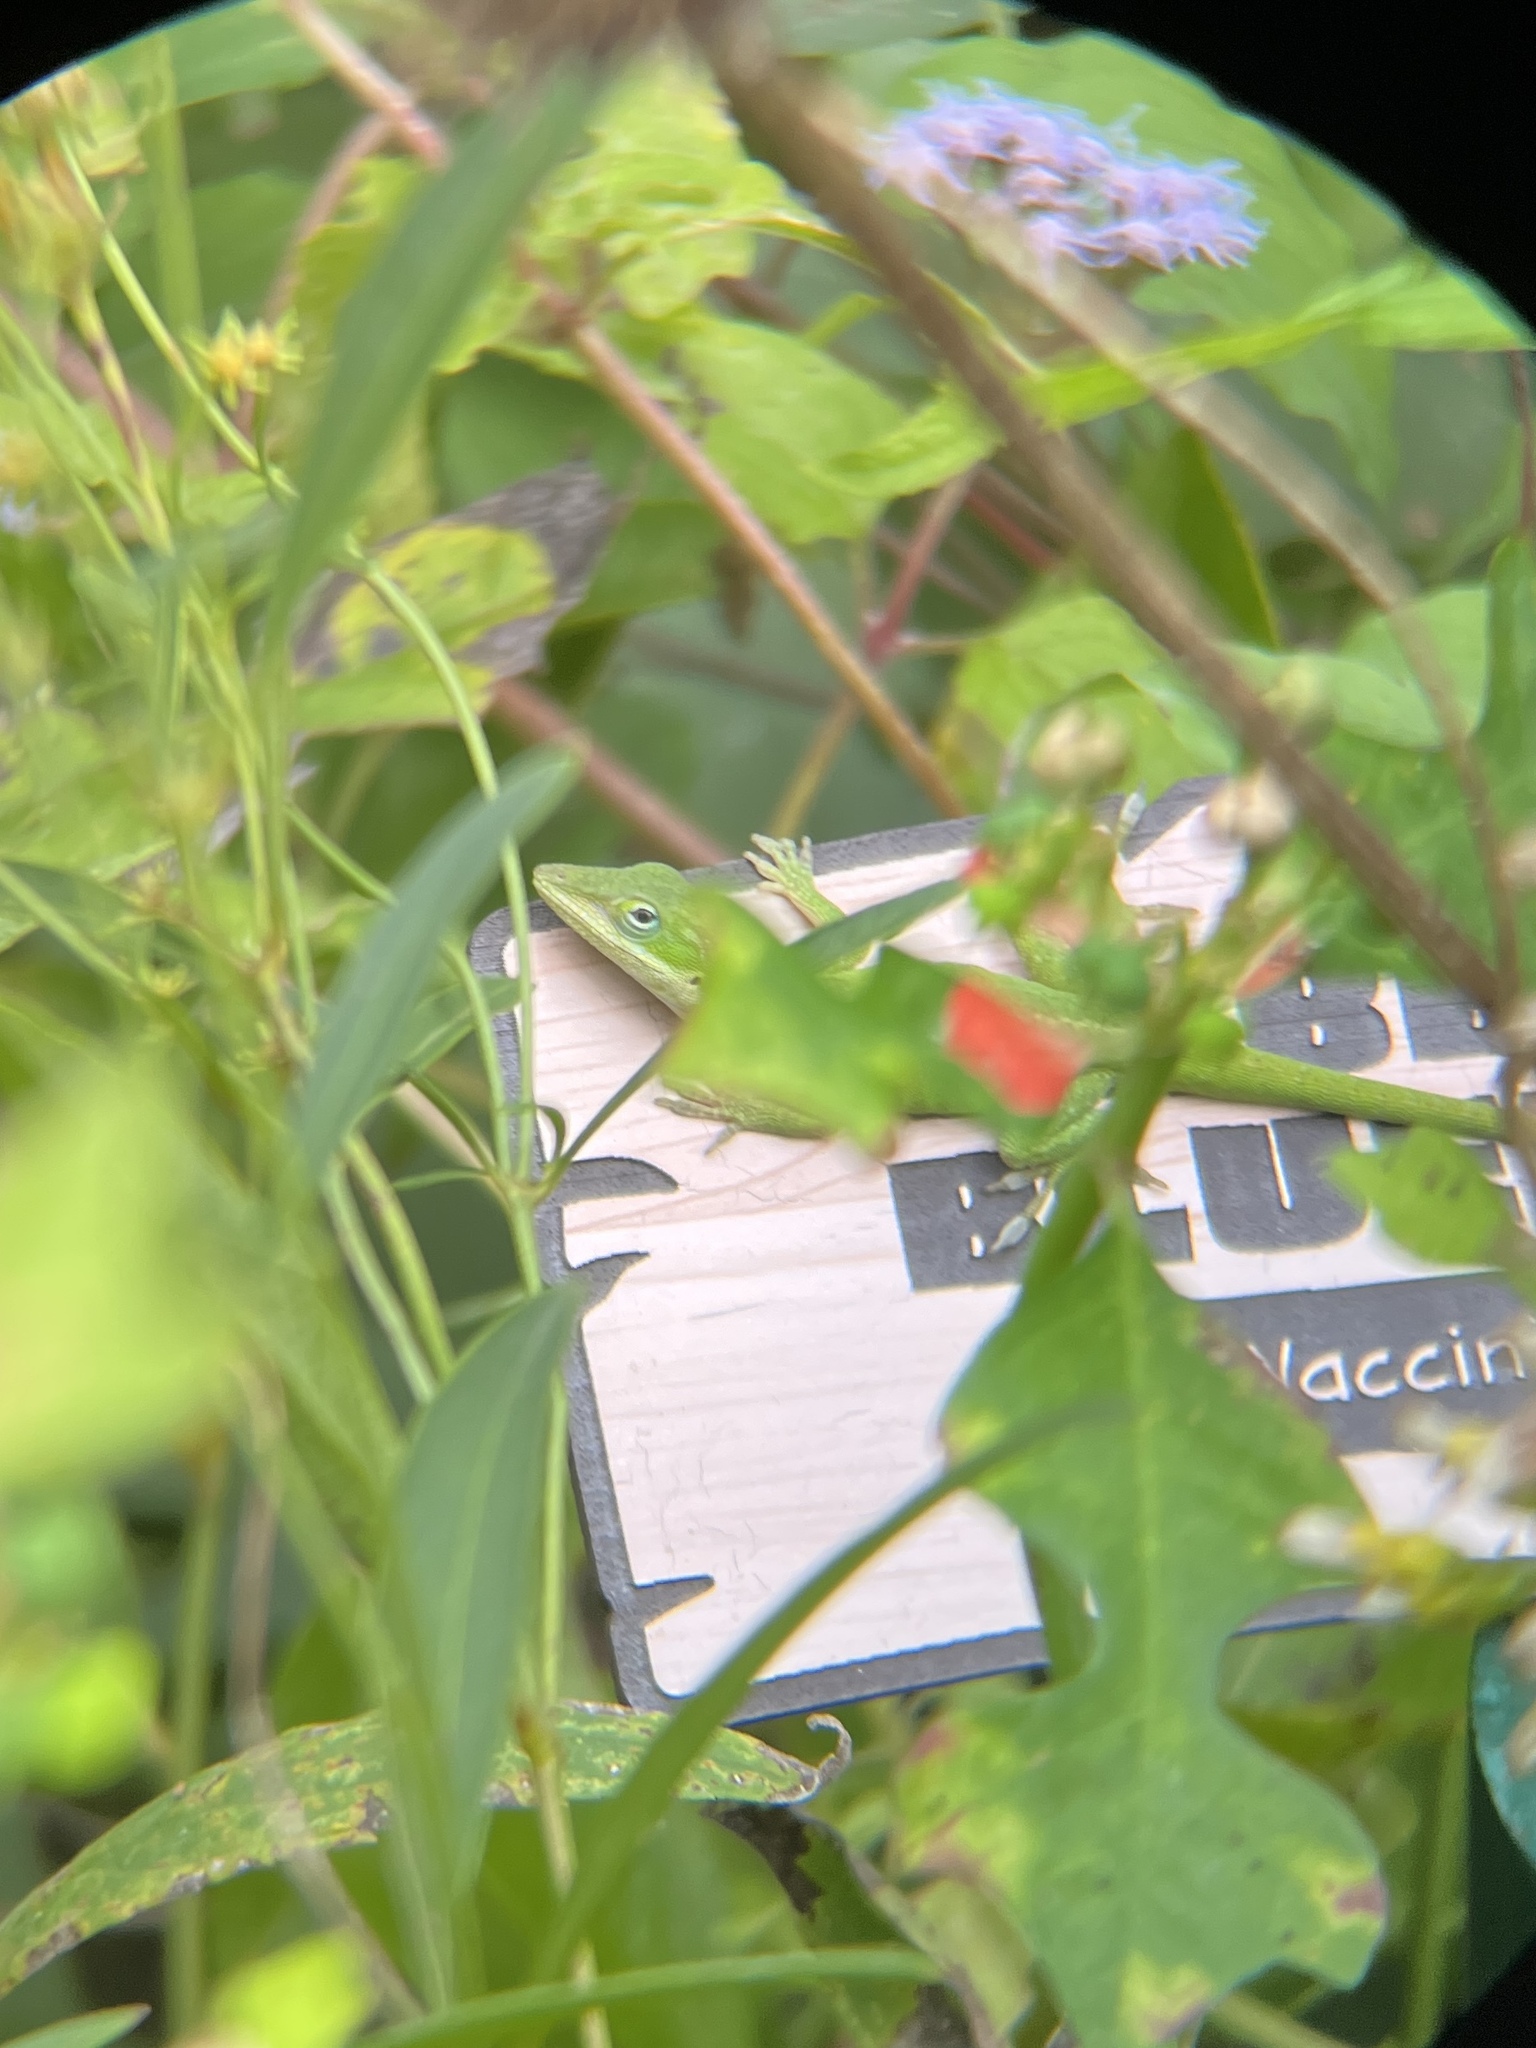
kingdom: Animalia
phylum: Chordata
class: Squamata
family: Dactyloidae
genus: Anolis
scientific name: Anolis carolinensis
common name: Green anole
